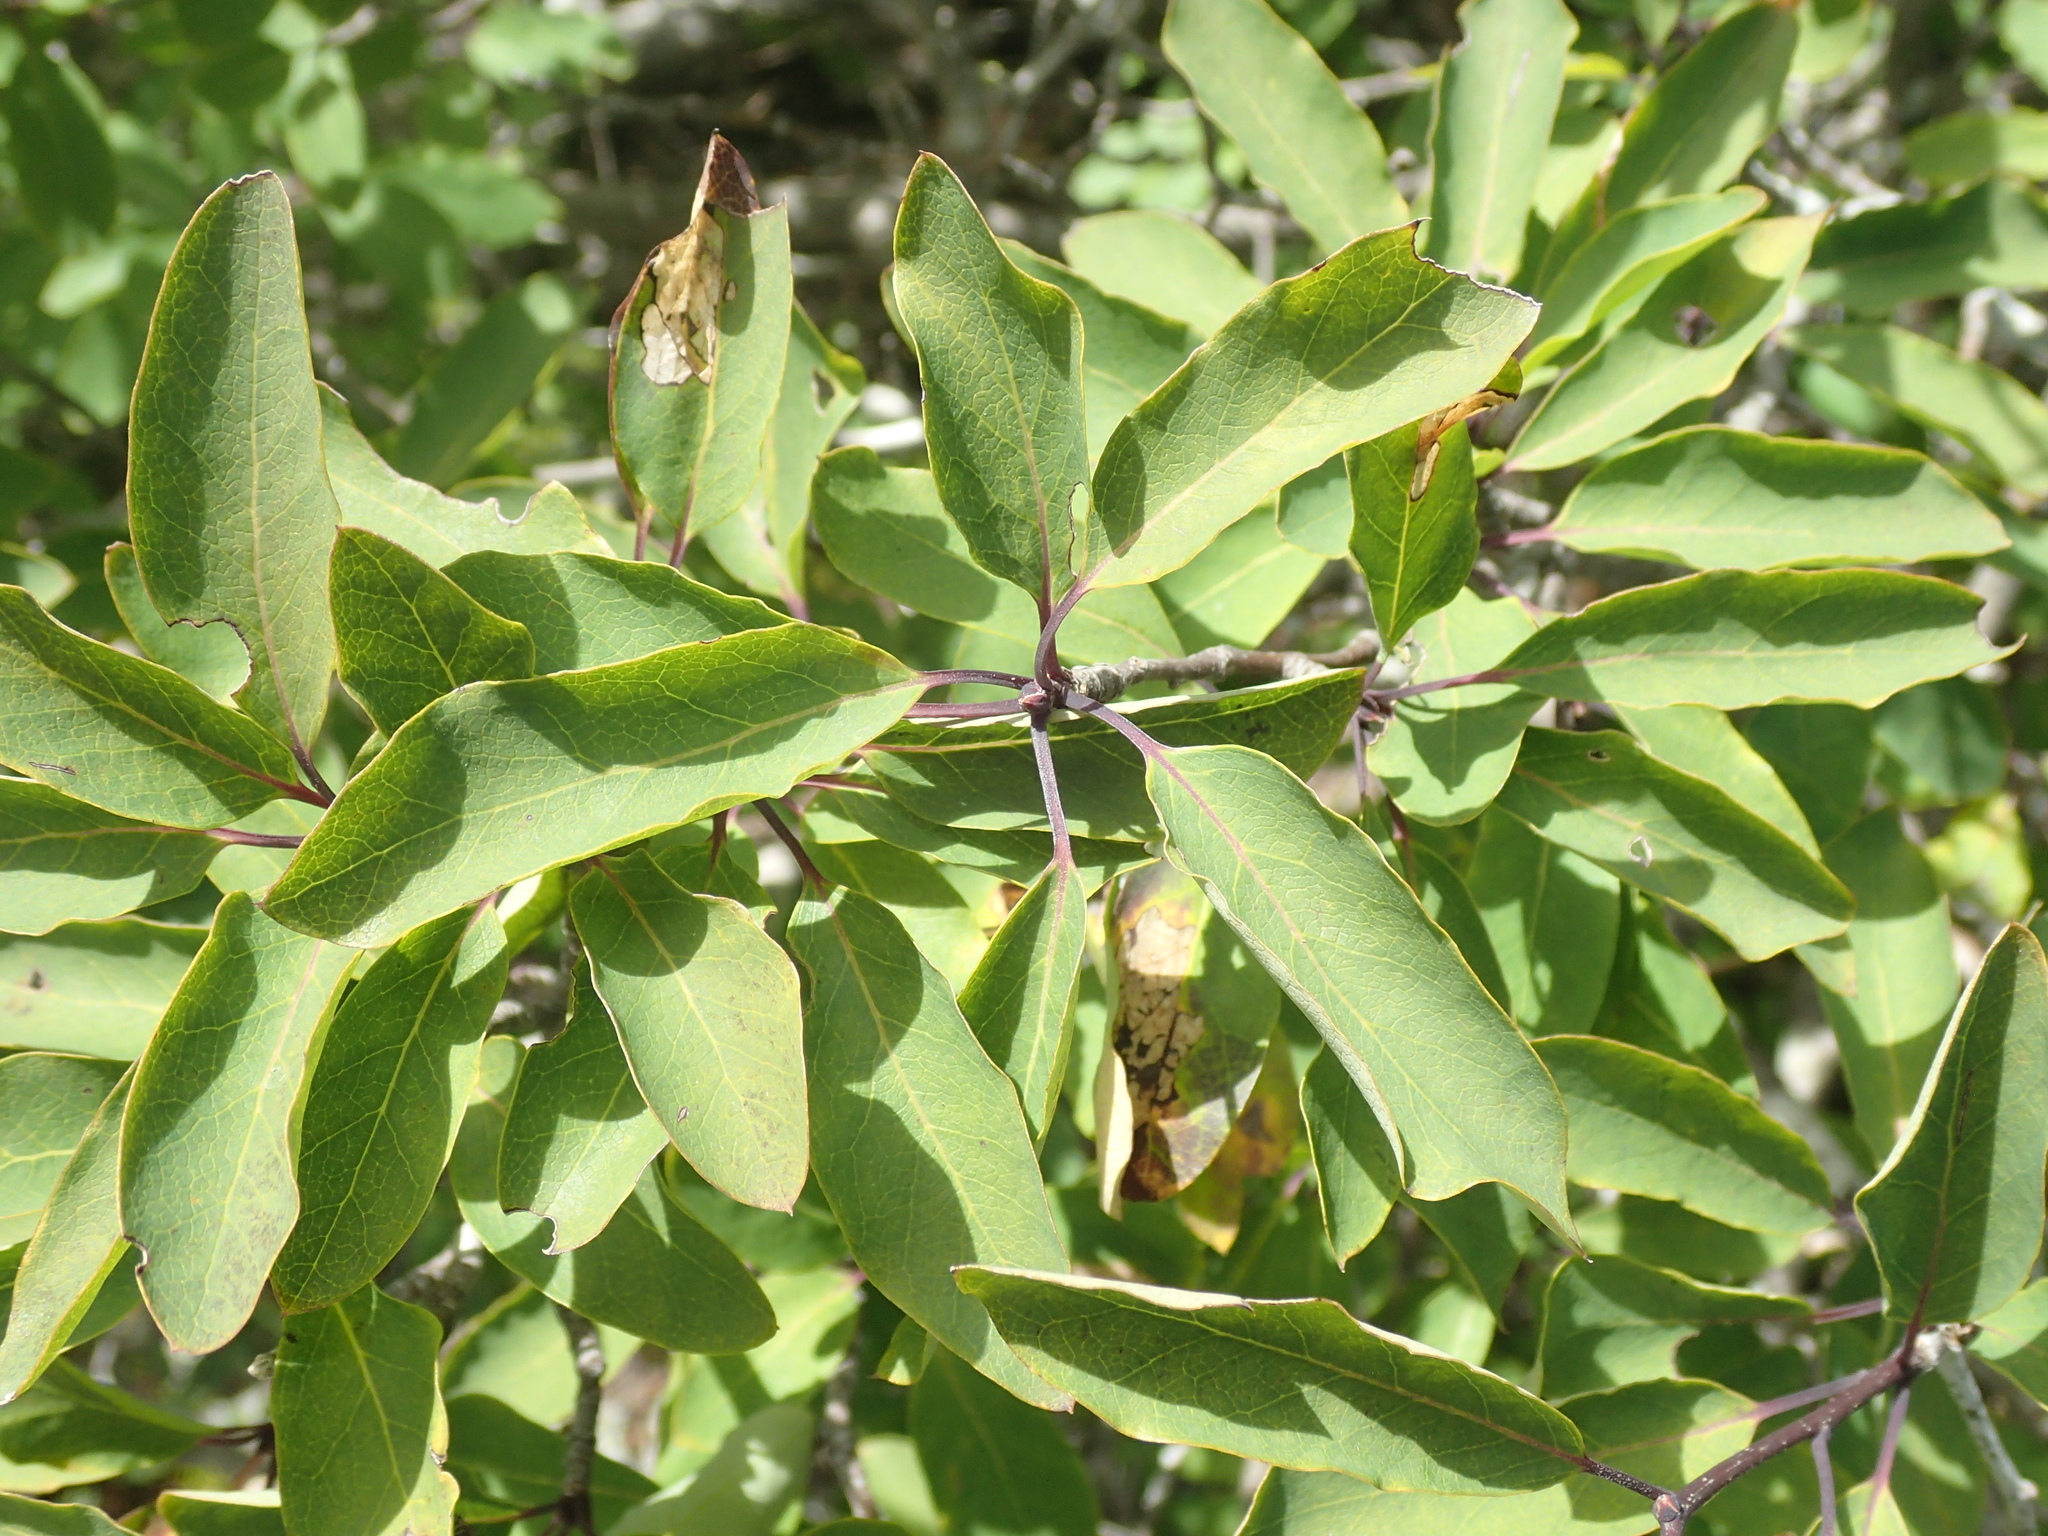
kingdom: Plantae
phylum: Tracheophyta
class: Magnoliopsida
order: Aquifoliales
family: Aquifoliaceae
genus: Ilex
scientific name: Ilex mucronata
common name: Catberry
